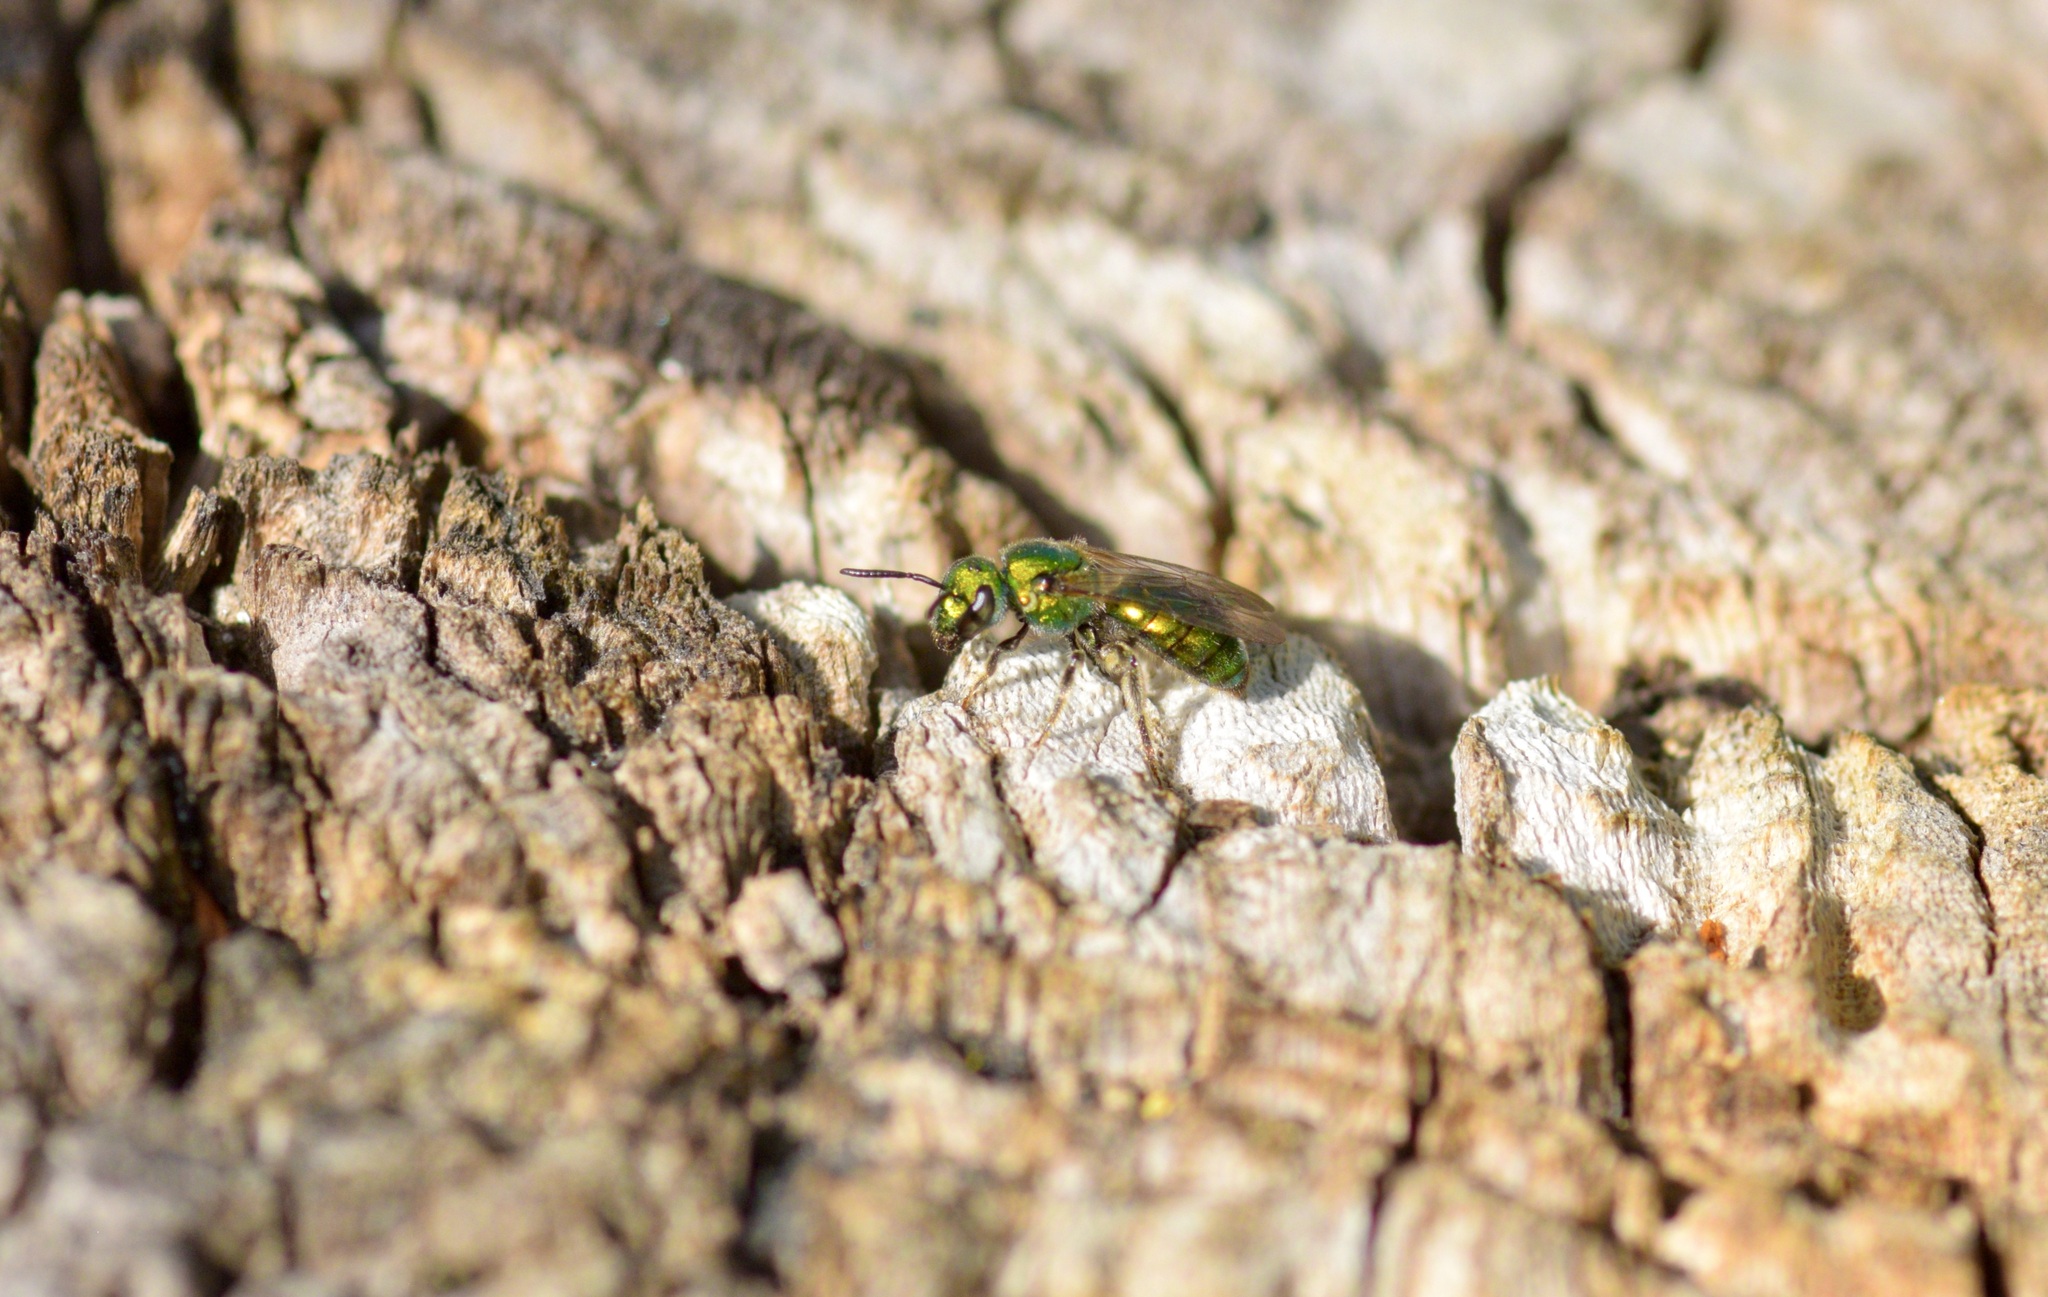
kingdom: Animalia
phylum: Arthropoda
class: Insecta
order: Hymenoptera
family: Halictidae
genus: Augochlora
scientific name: Augochlora pura
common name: Pure green sweat bee
